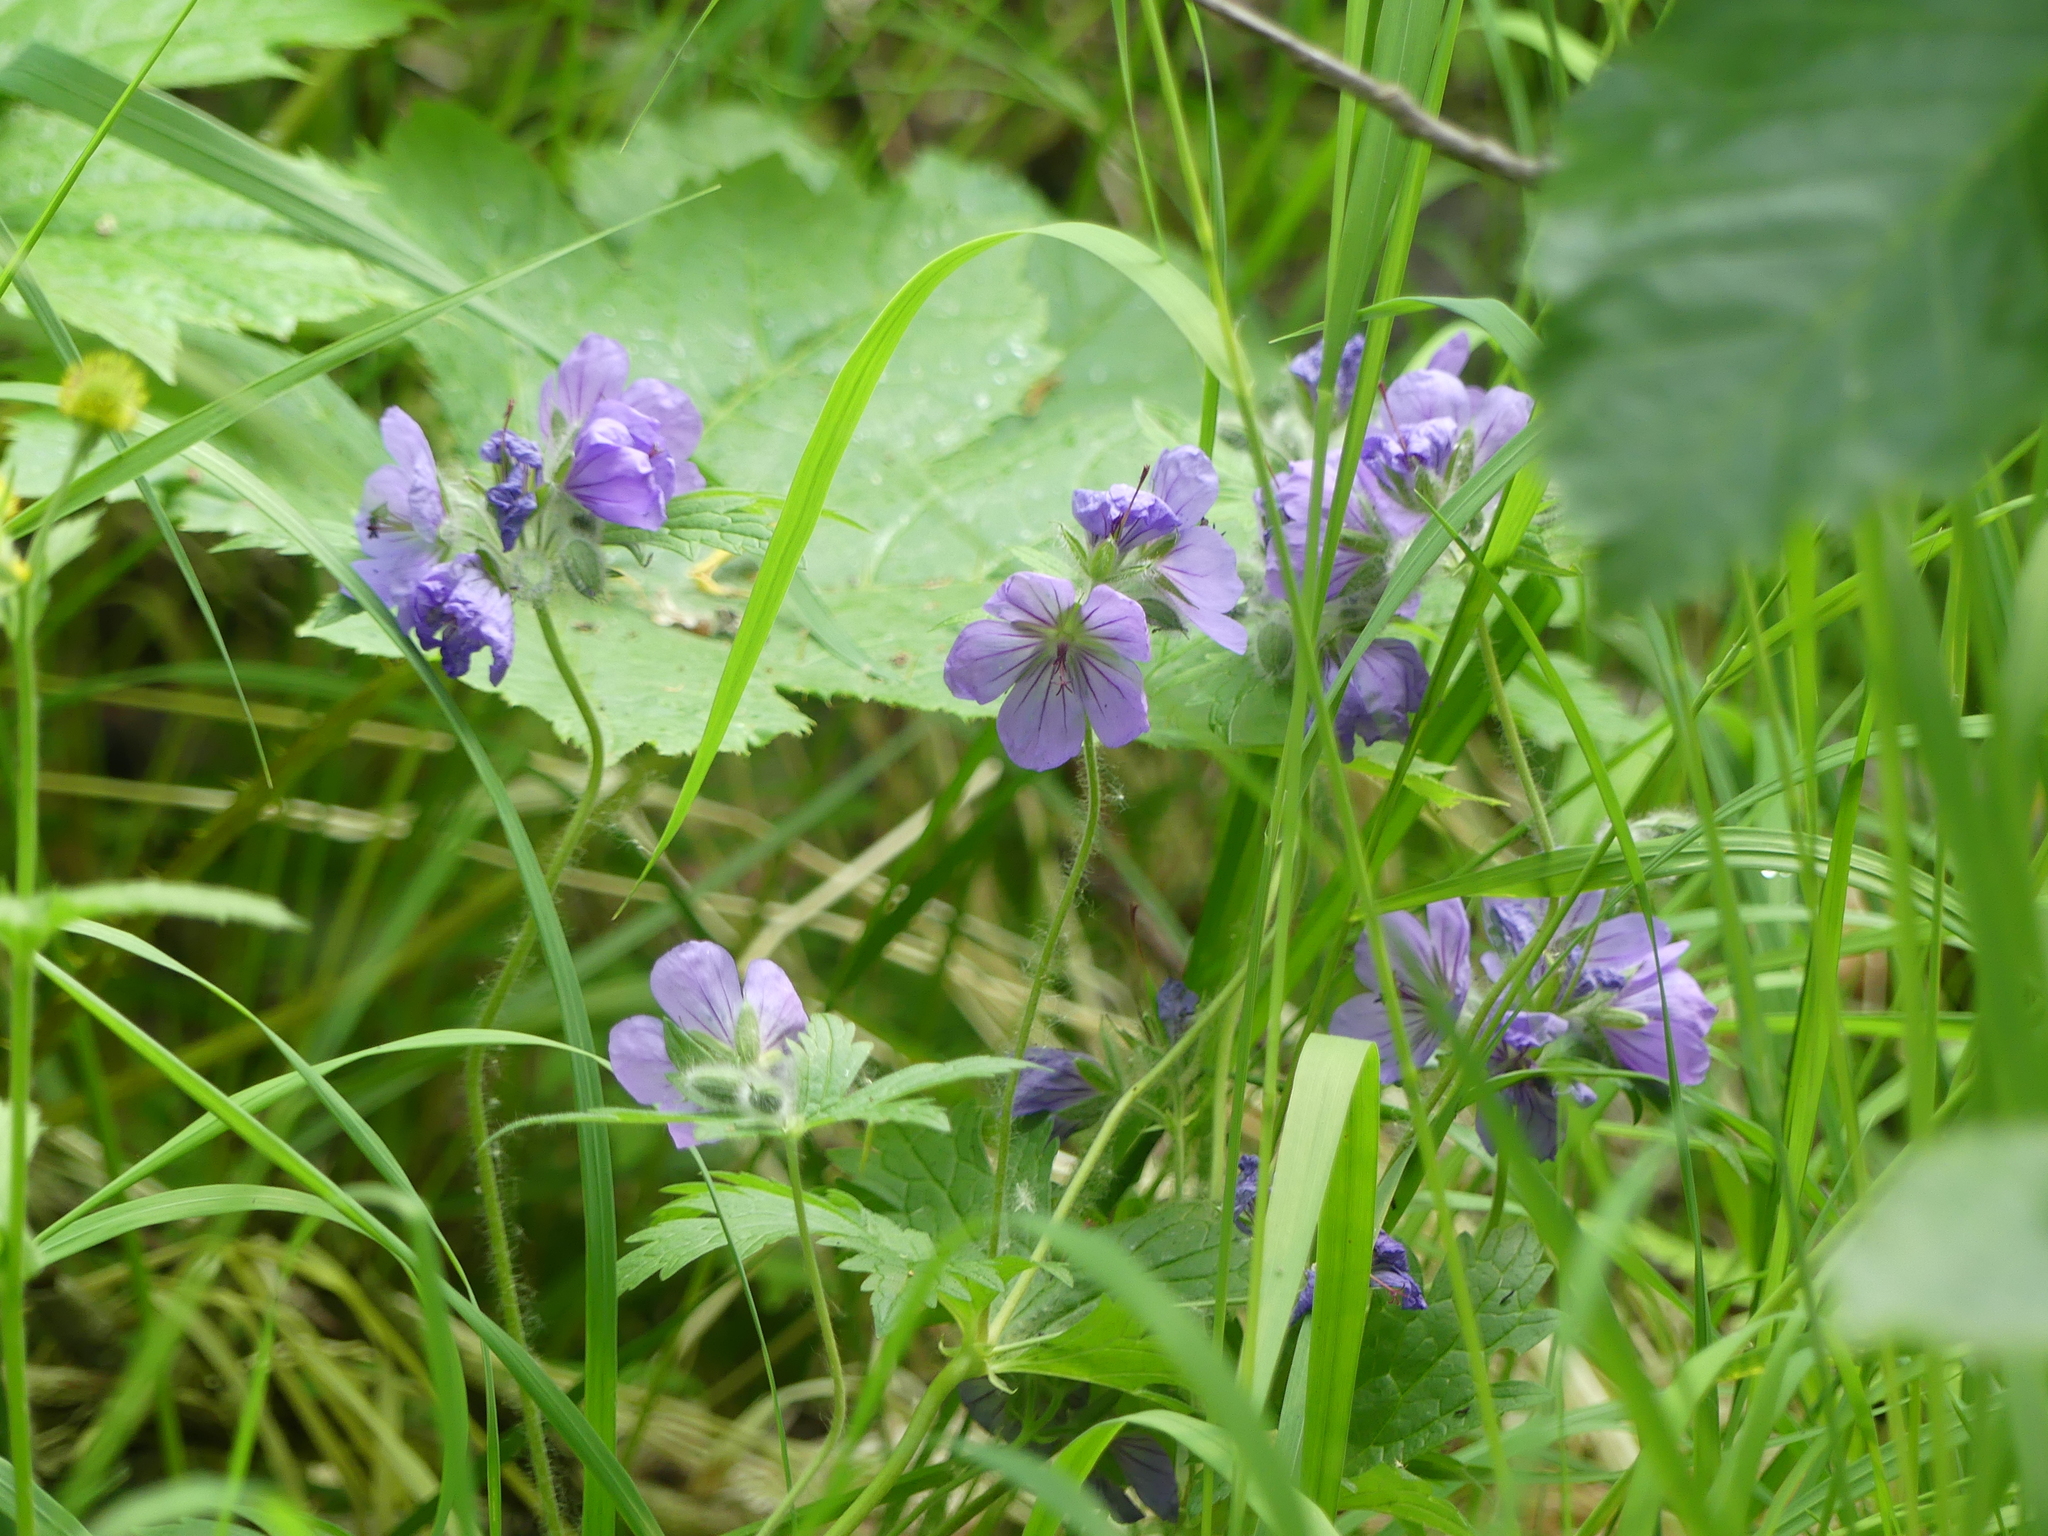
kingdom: Plantae
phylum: Tracheophyta
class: Magnoliopsida
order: Geraniales
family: Geraniaceae
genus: Geranium
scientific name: Geranium erianthum
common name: Northern crane's-bill
